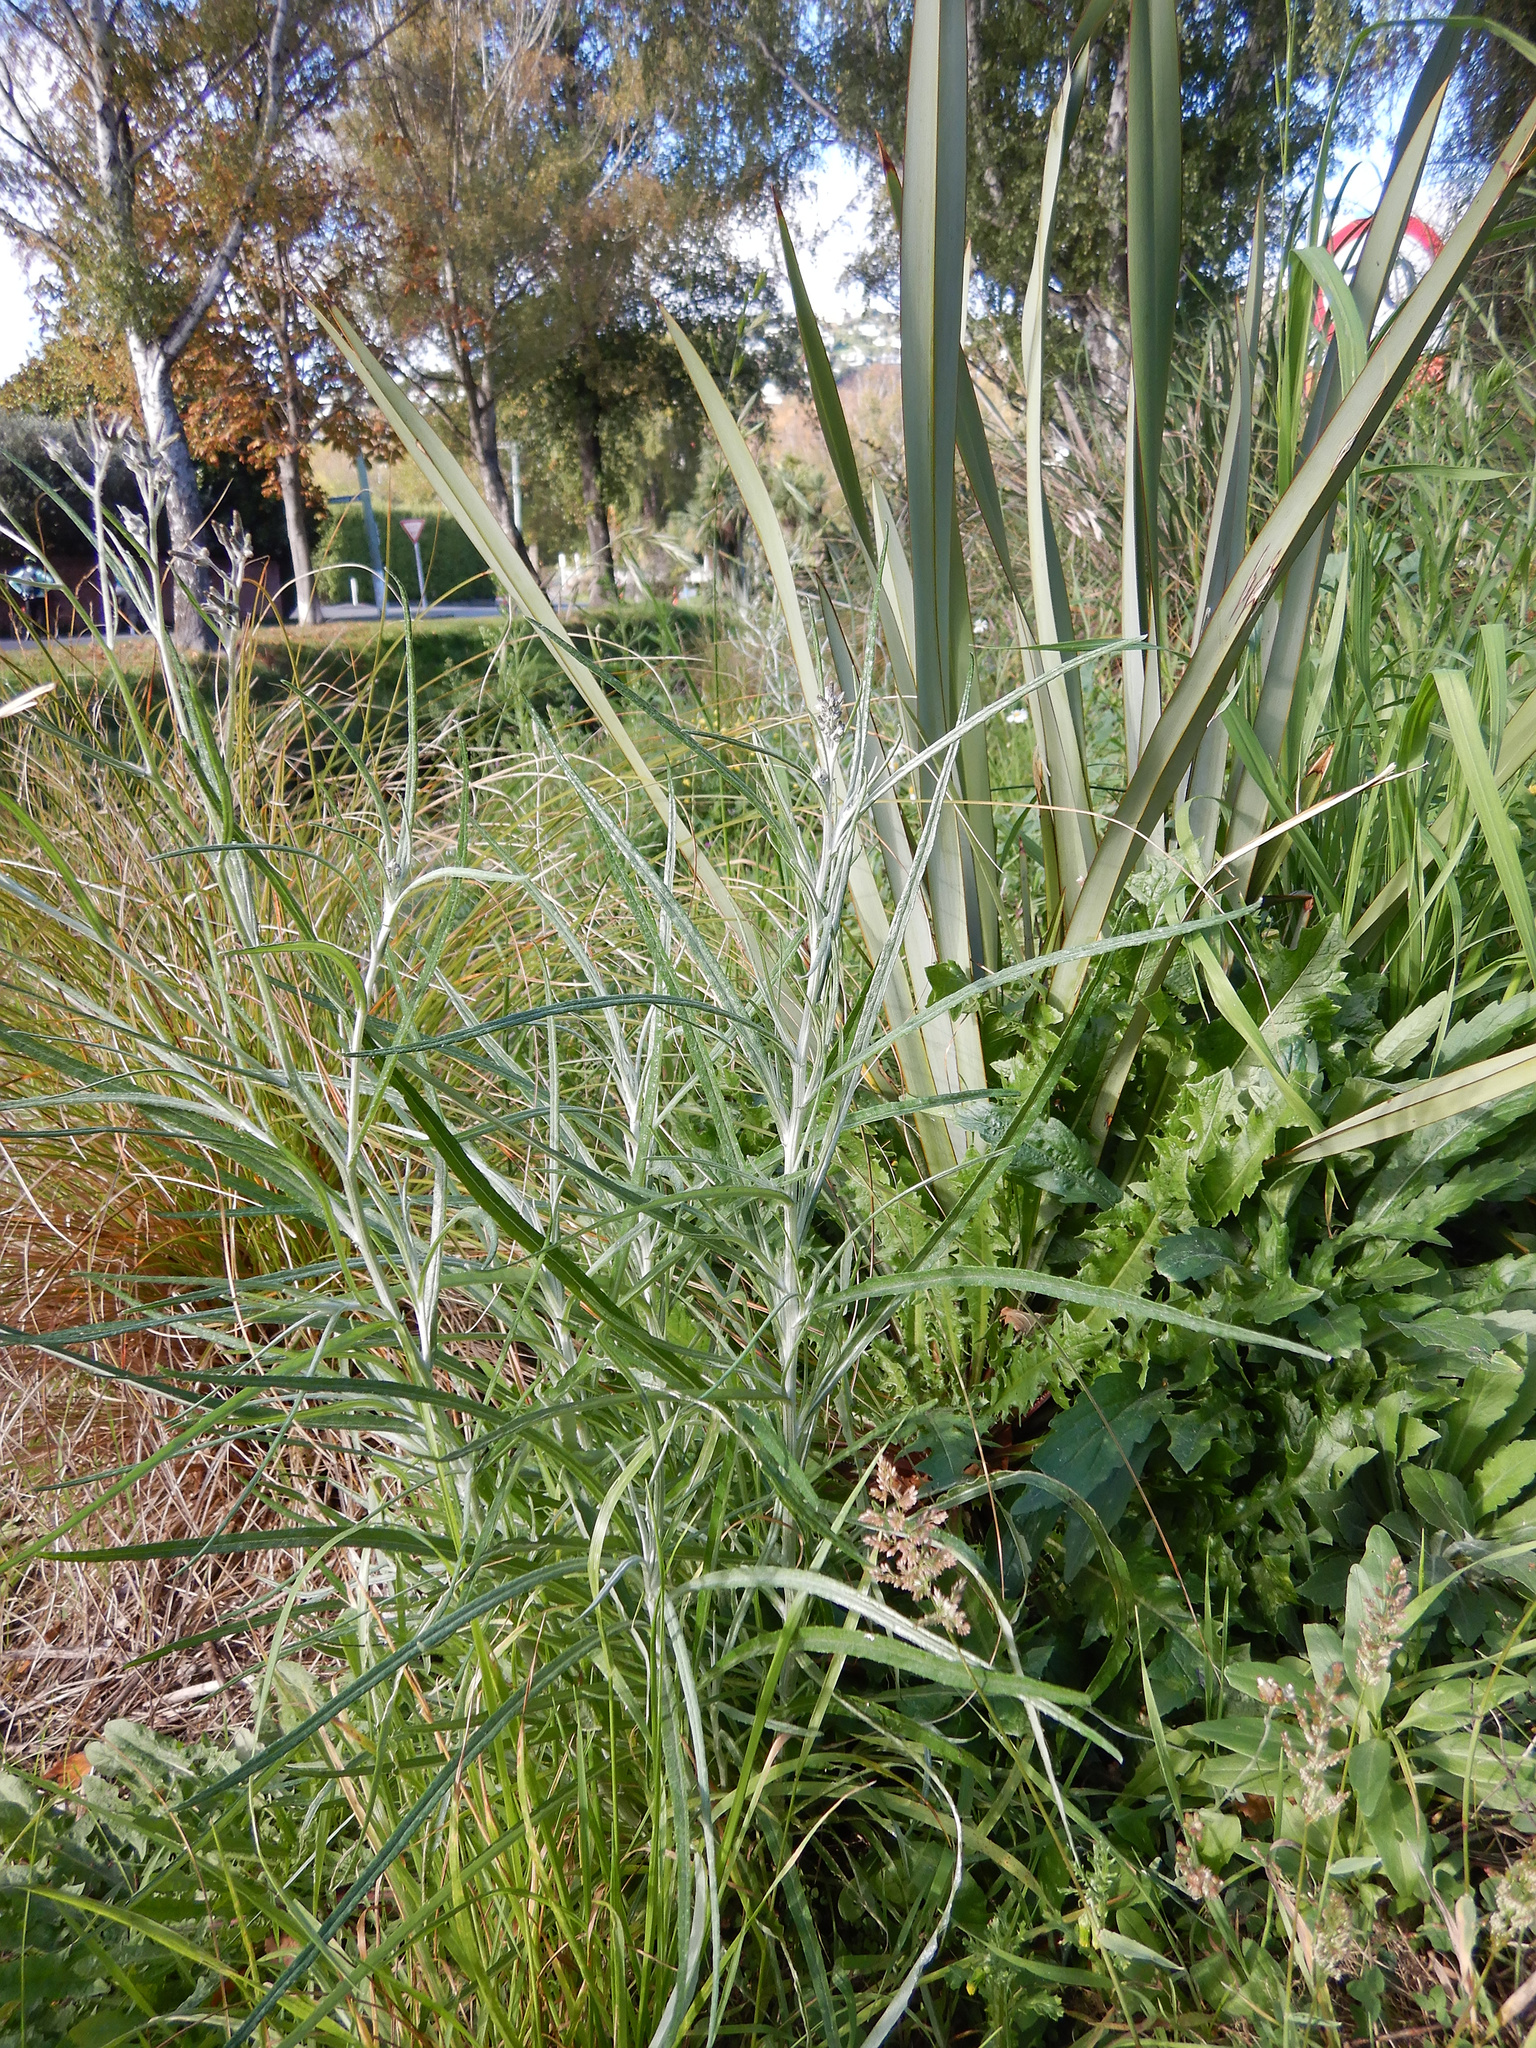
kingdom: Plantae
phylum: Tracheophyta
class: Magnoliopsida
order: Asterales
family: Asteraceae
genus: Senecio
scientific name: Senecio quadridentatus
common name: Cotton fireweed
